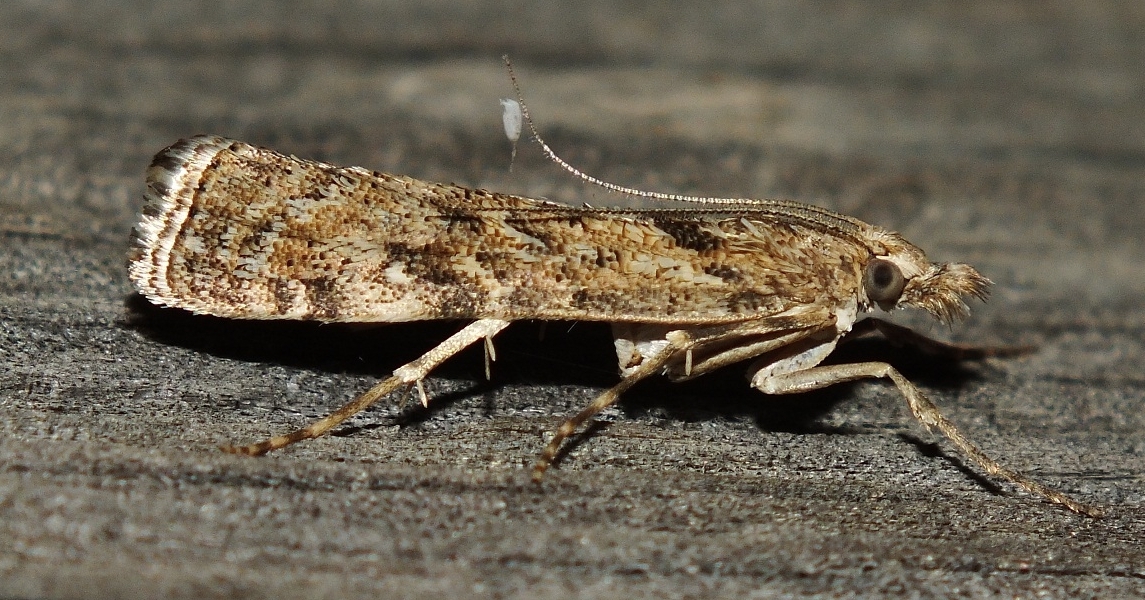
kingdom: Animalia
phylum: Arthropoda
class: Insecta
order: Lepidoptera
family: Crambidae
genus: Talis
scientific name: Talis quercella
